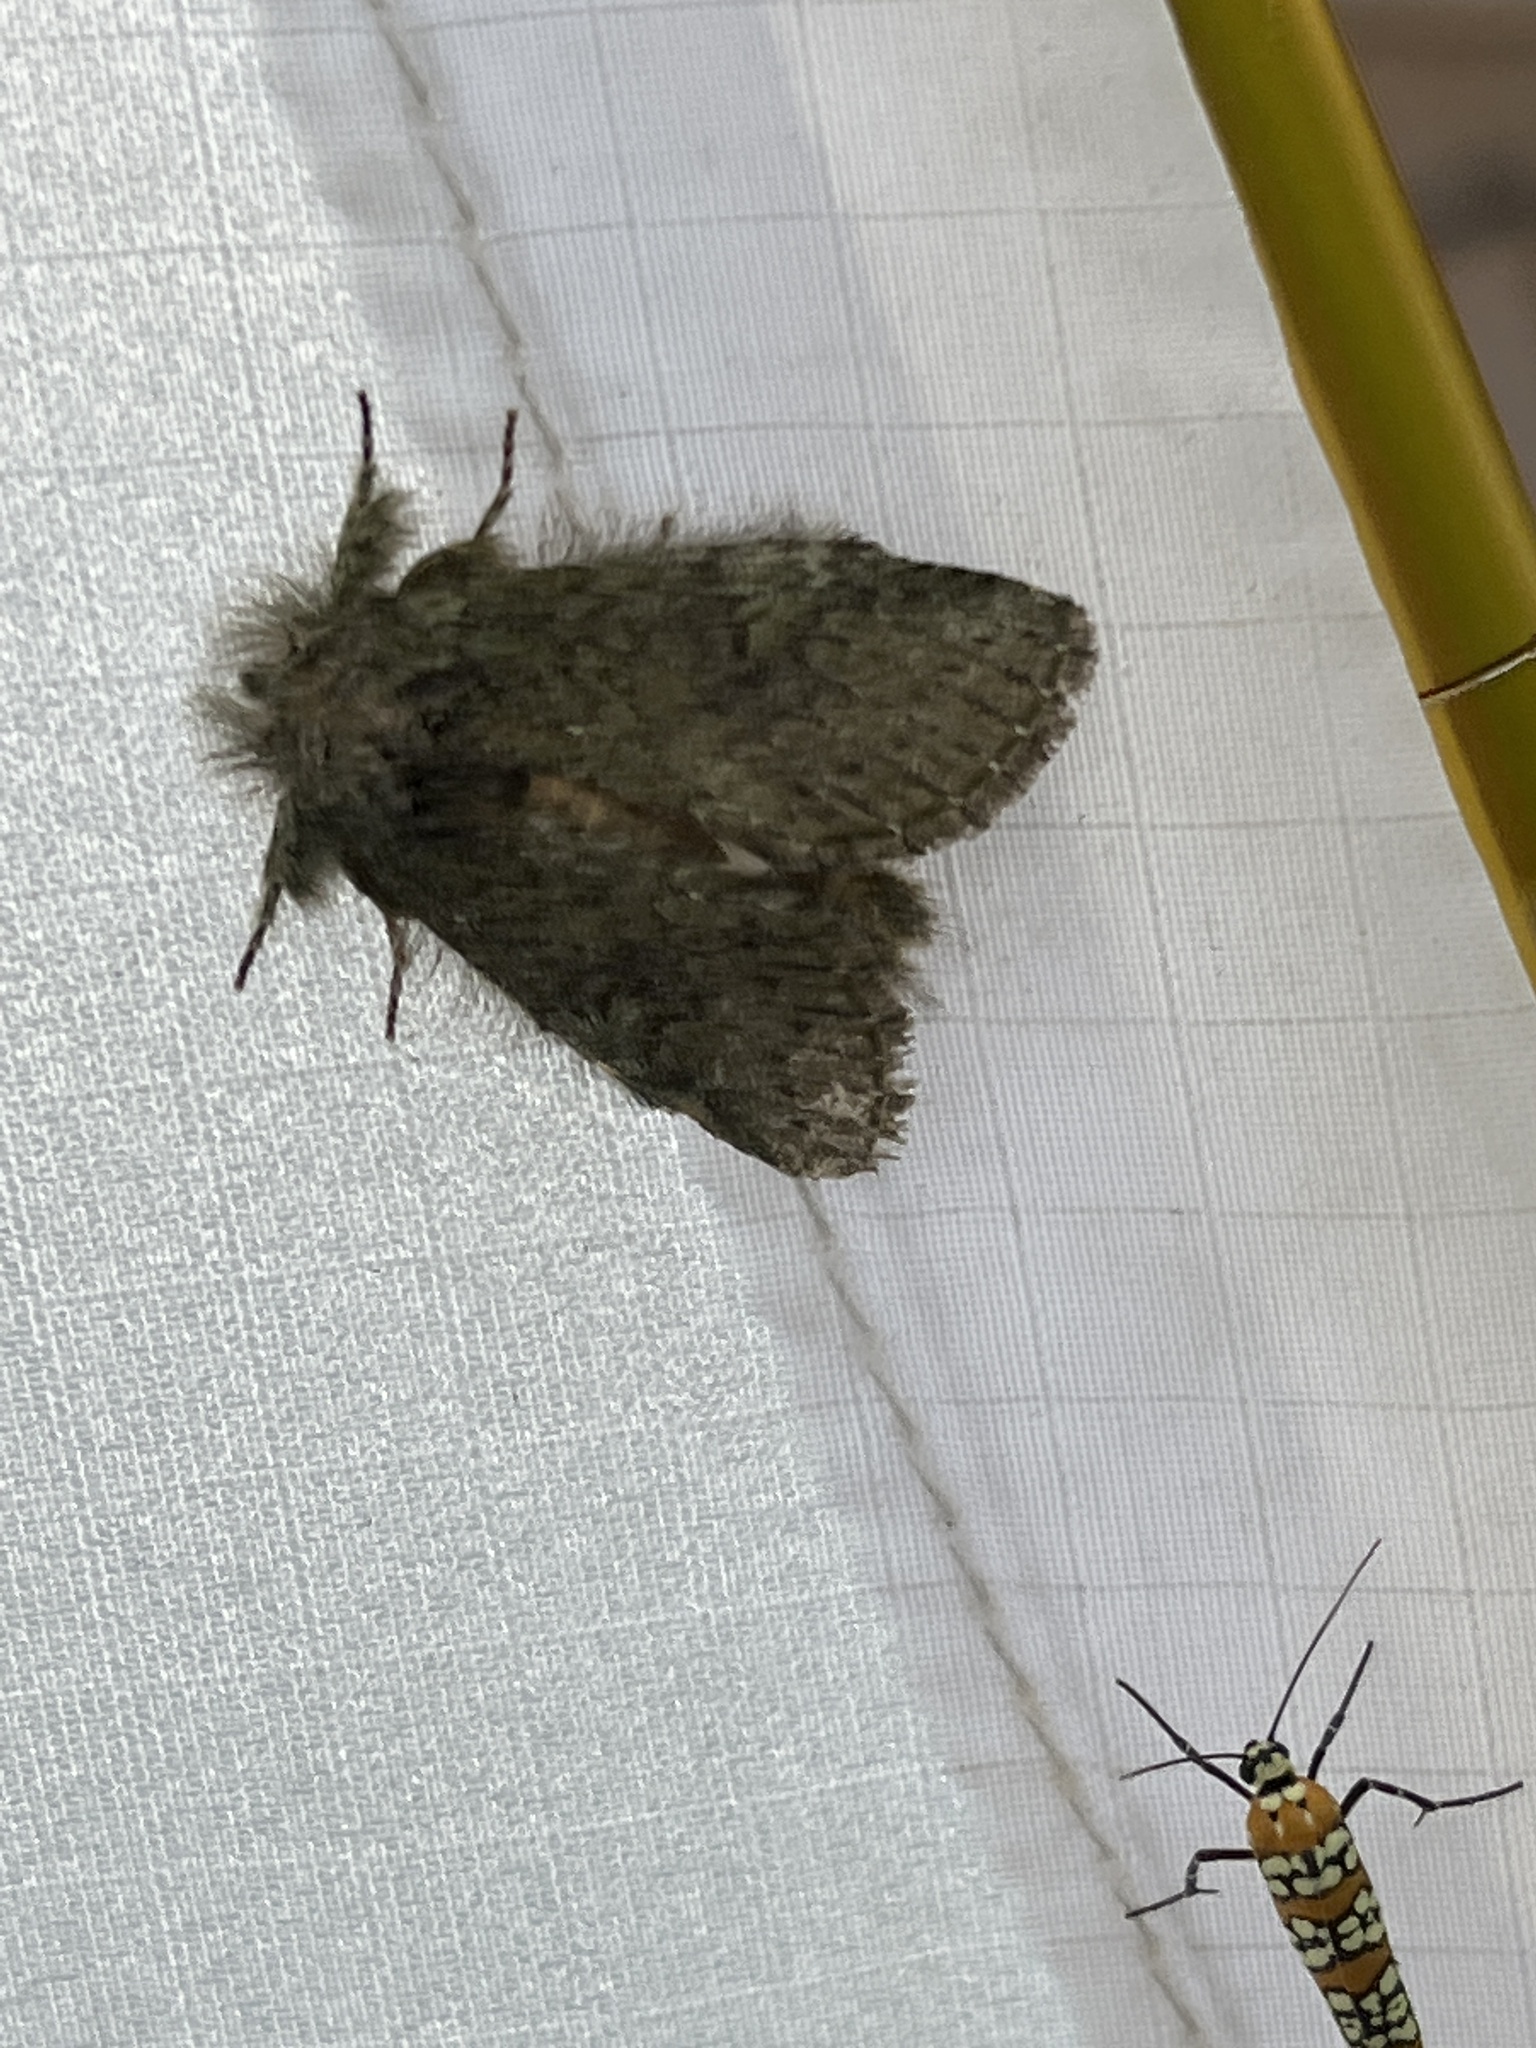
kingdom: Animalia
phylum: Arthropoda
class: Insecta
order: Lepidoptera
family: Notodontidae
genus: Disphragis
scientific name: Disphragis Cecrita guttivitta
